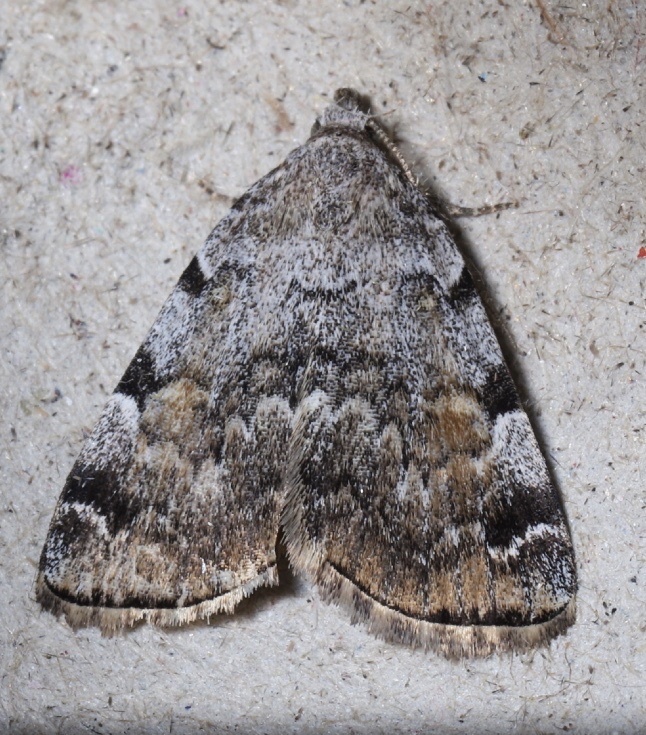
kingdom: Animalia
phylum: Arthropoda
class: Insecta
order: Lepidoptera
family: Erebidae
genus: Idia
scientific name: Idia americalis
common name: American idia moth
